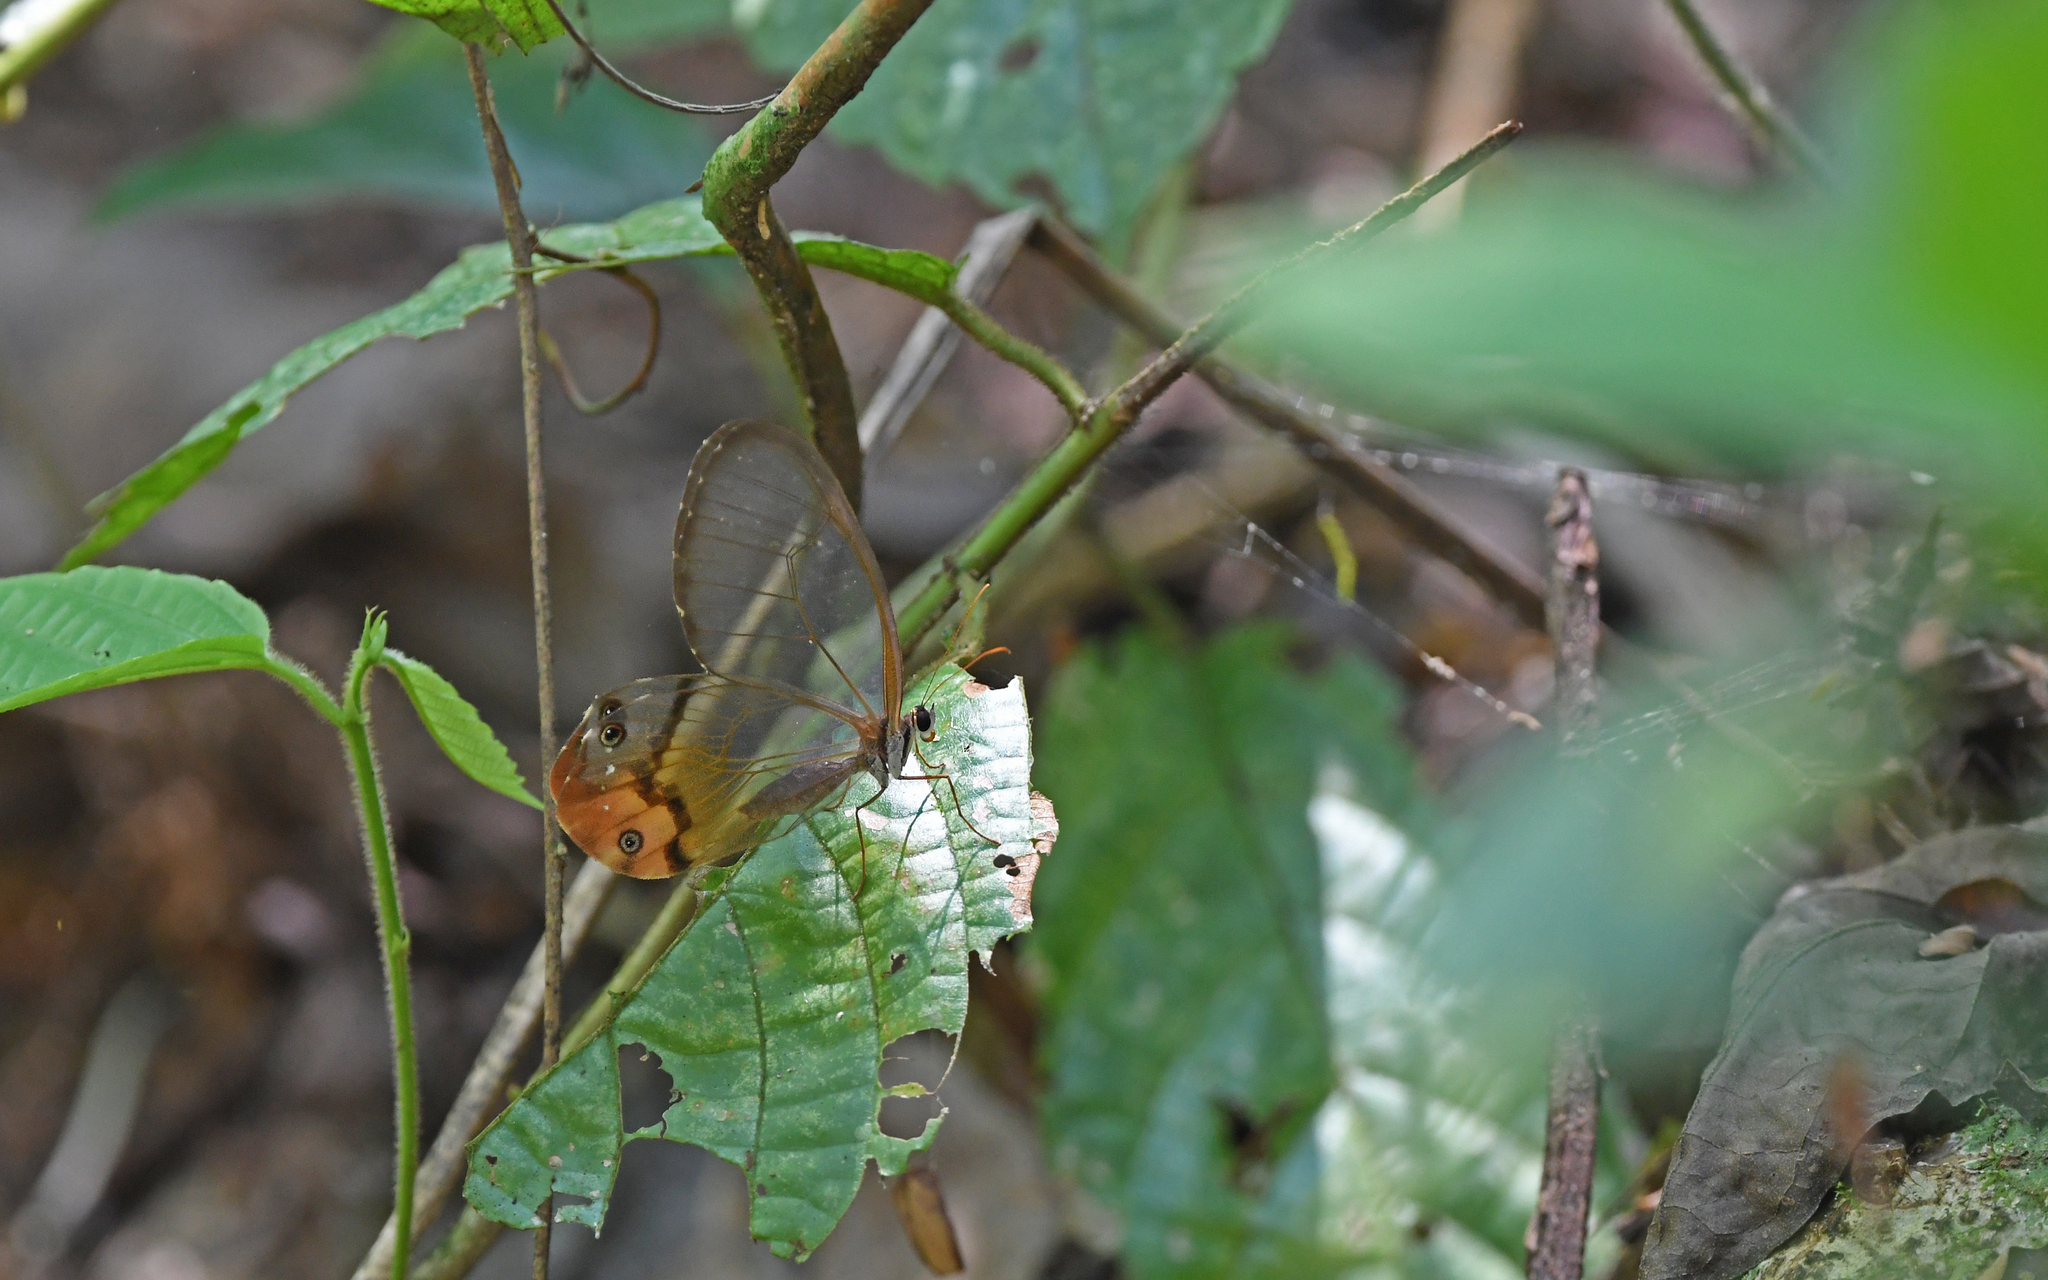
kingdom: Animalia
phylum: Arthropoda
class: Insecta
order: Lepidoptera
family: Nymphalidae
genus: Haetera
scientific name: Haetera piera
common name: Amber phantom
